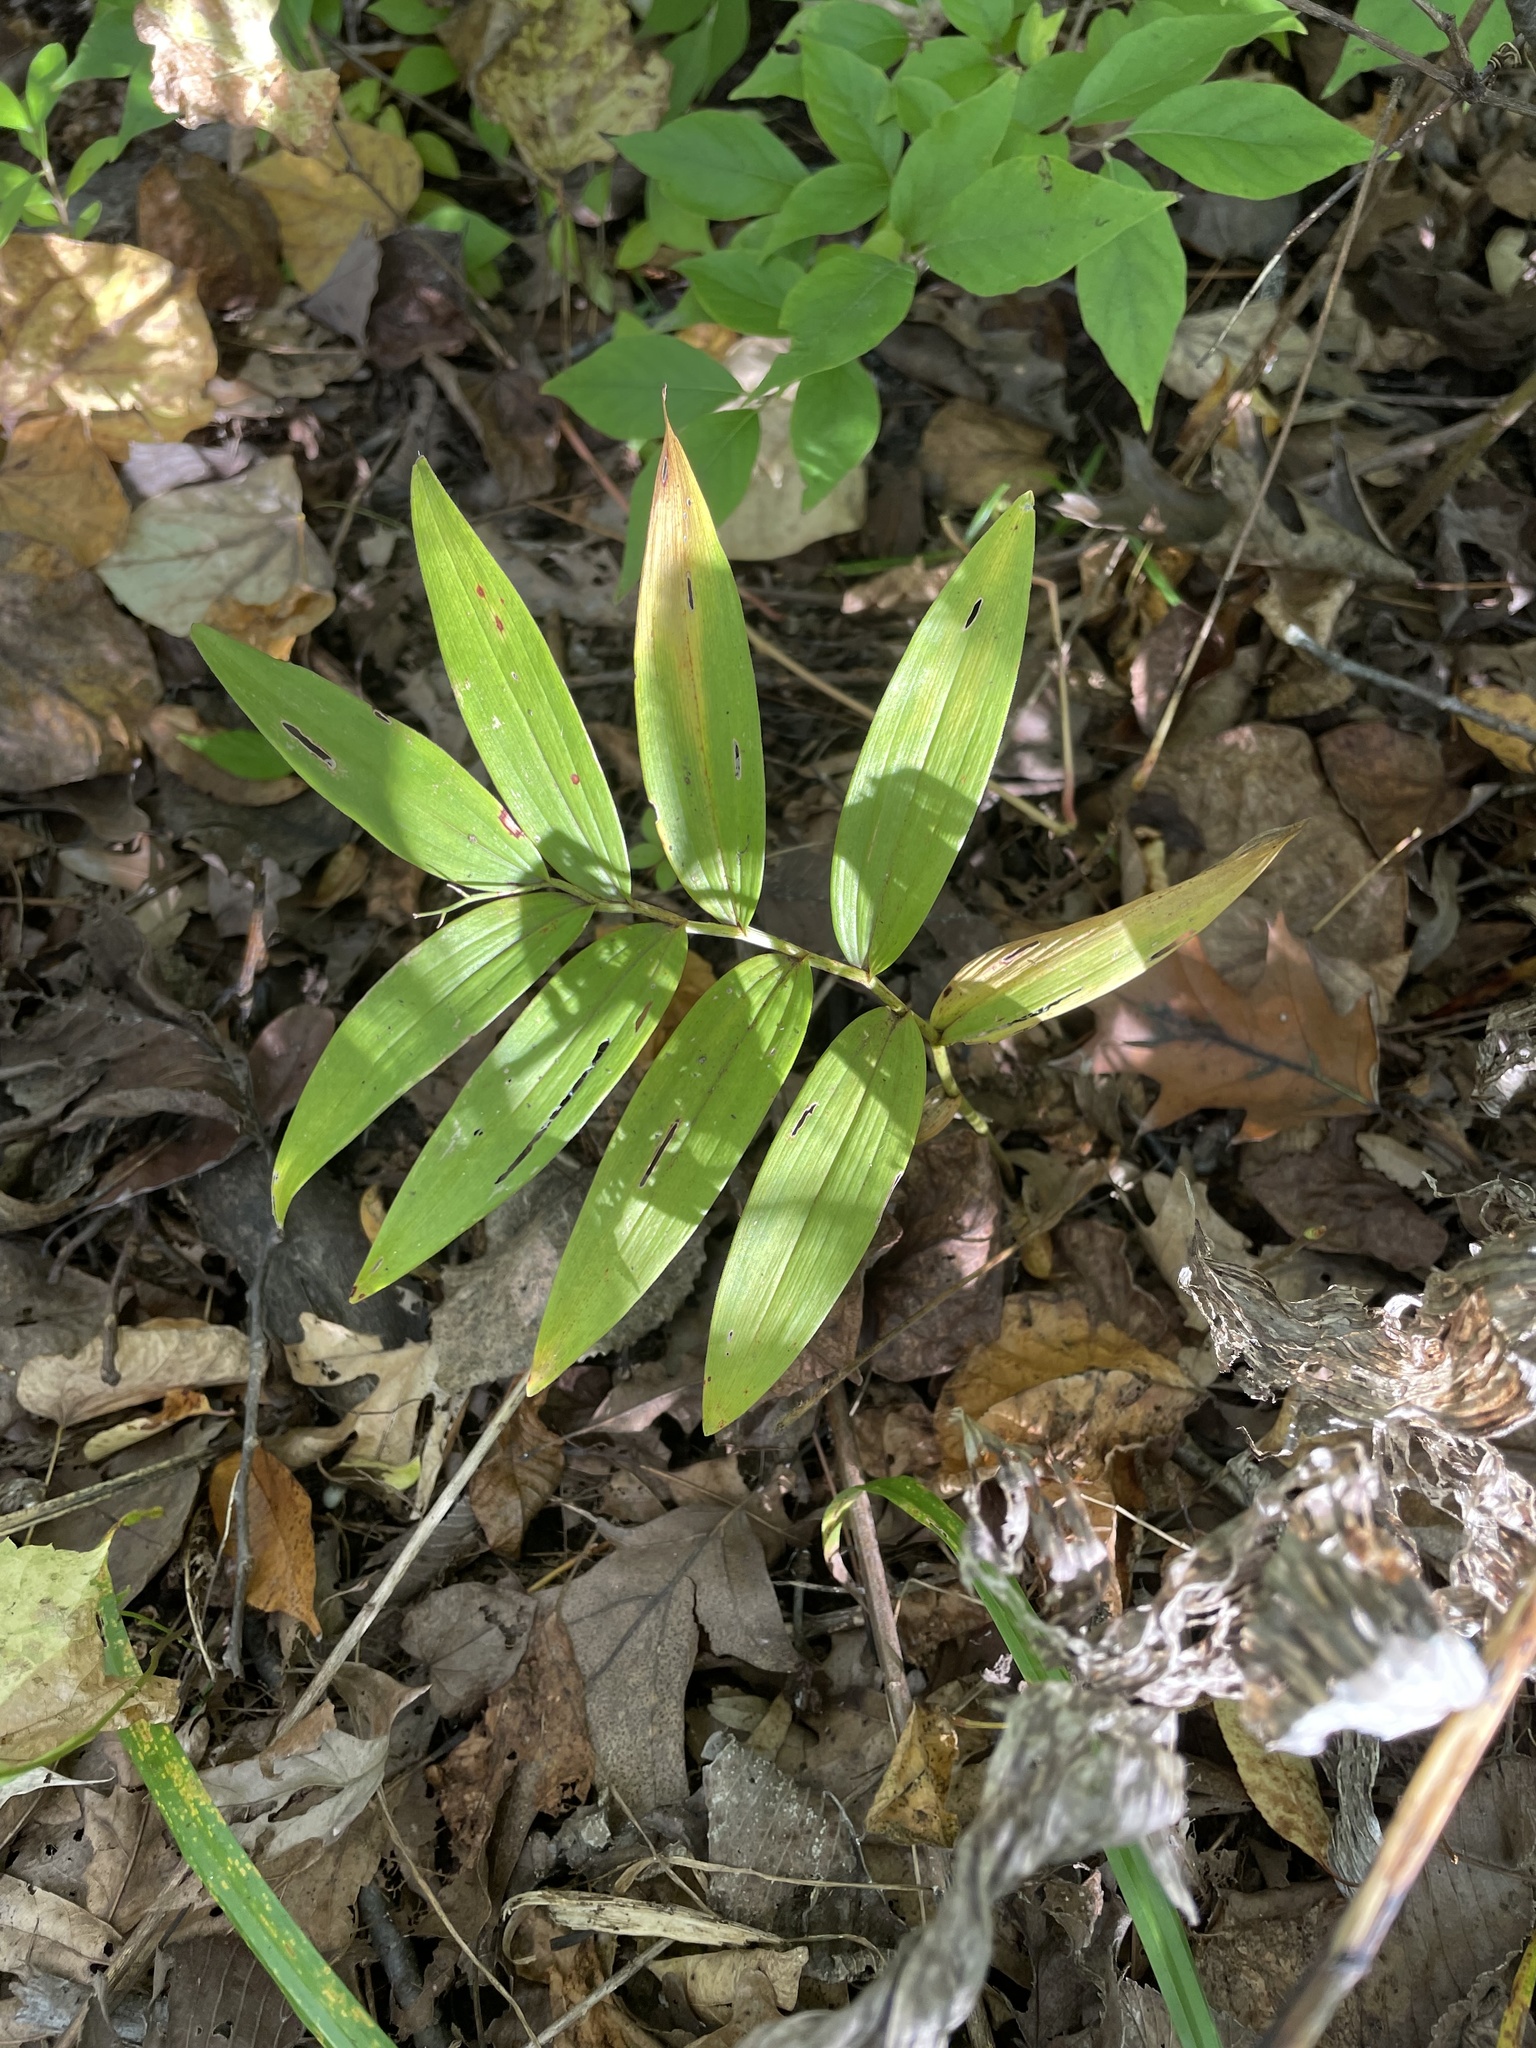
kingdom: Plantae
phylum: Tracheophyta
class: Liliopsida
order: Asparagales
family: Asparagaceae
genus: Maianthemum
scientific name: Maianthemum stellatum
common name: Little false solomon's seal
